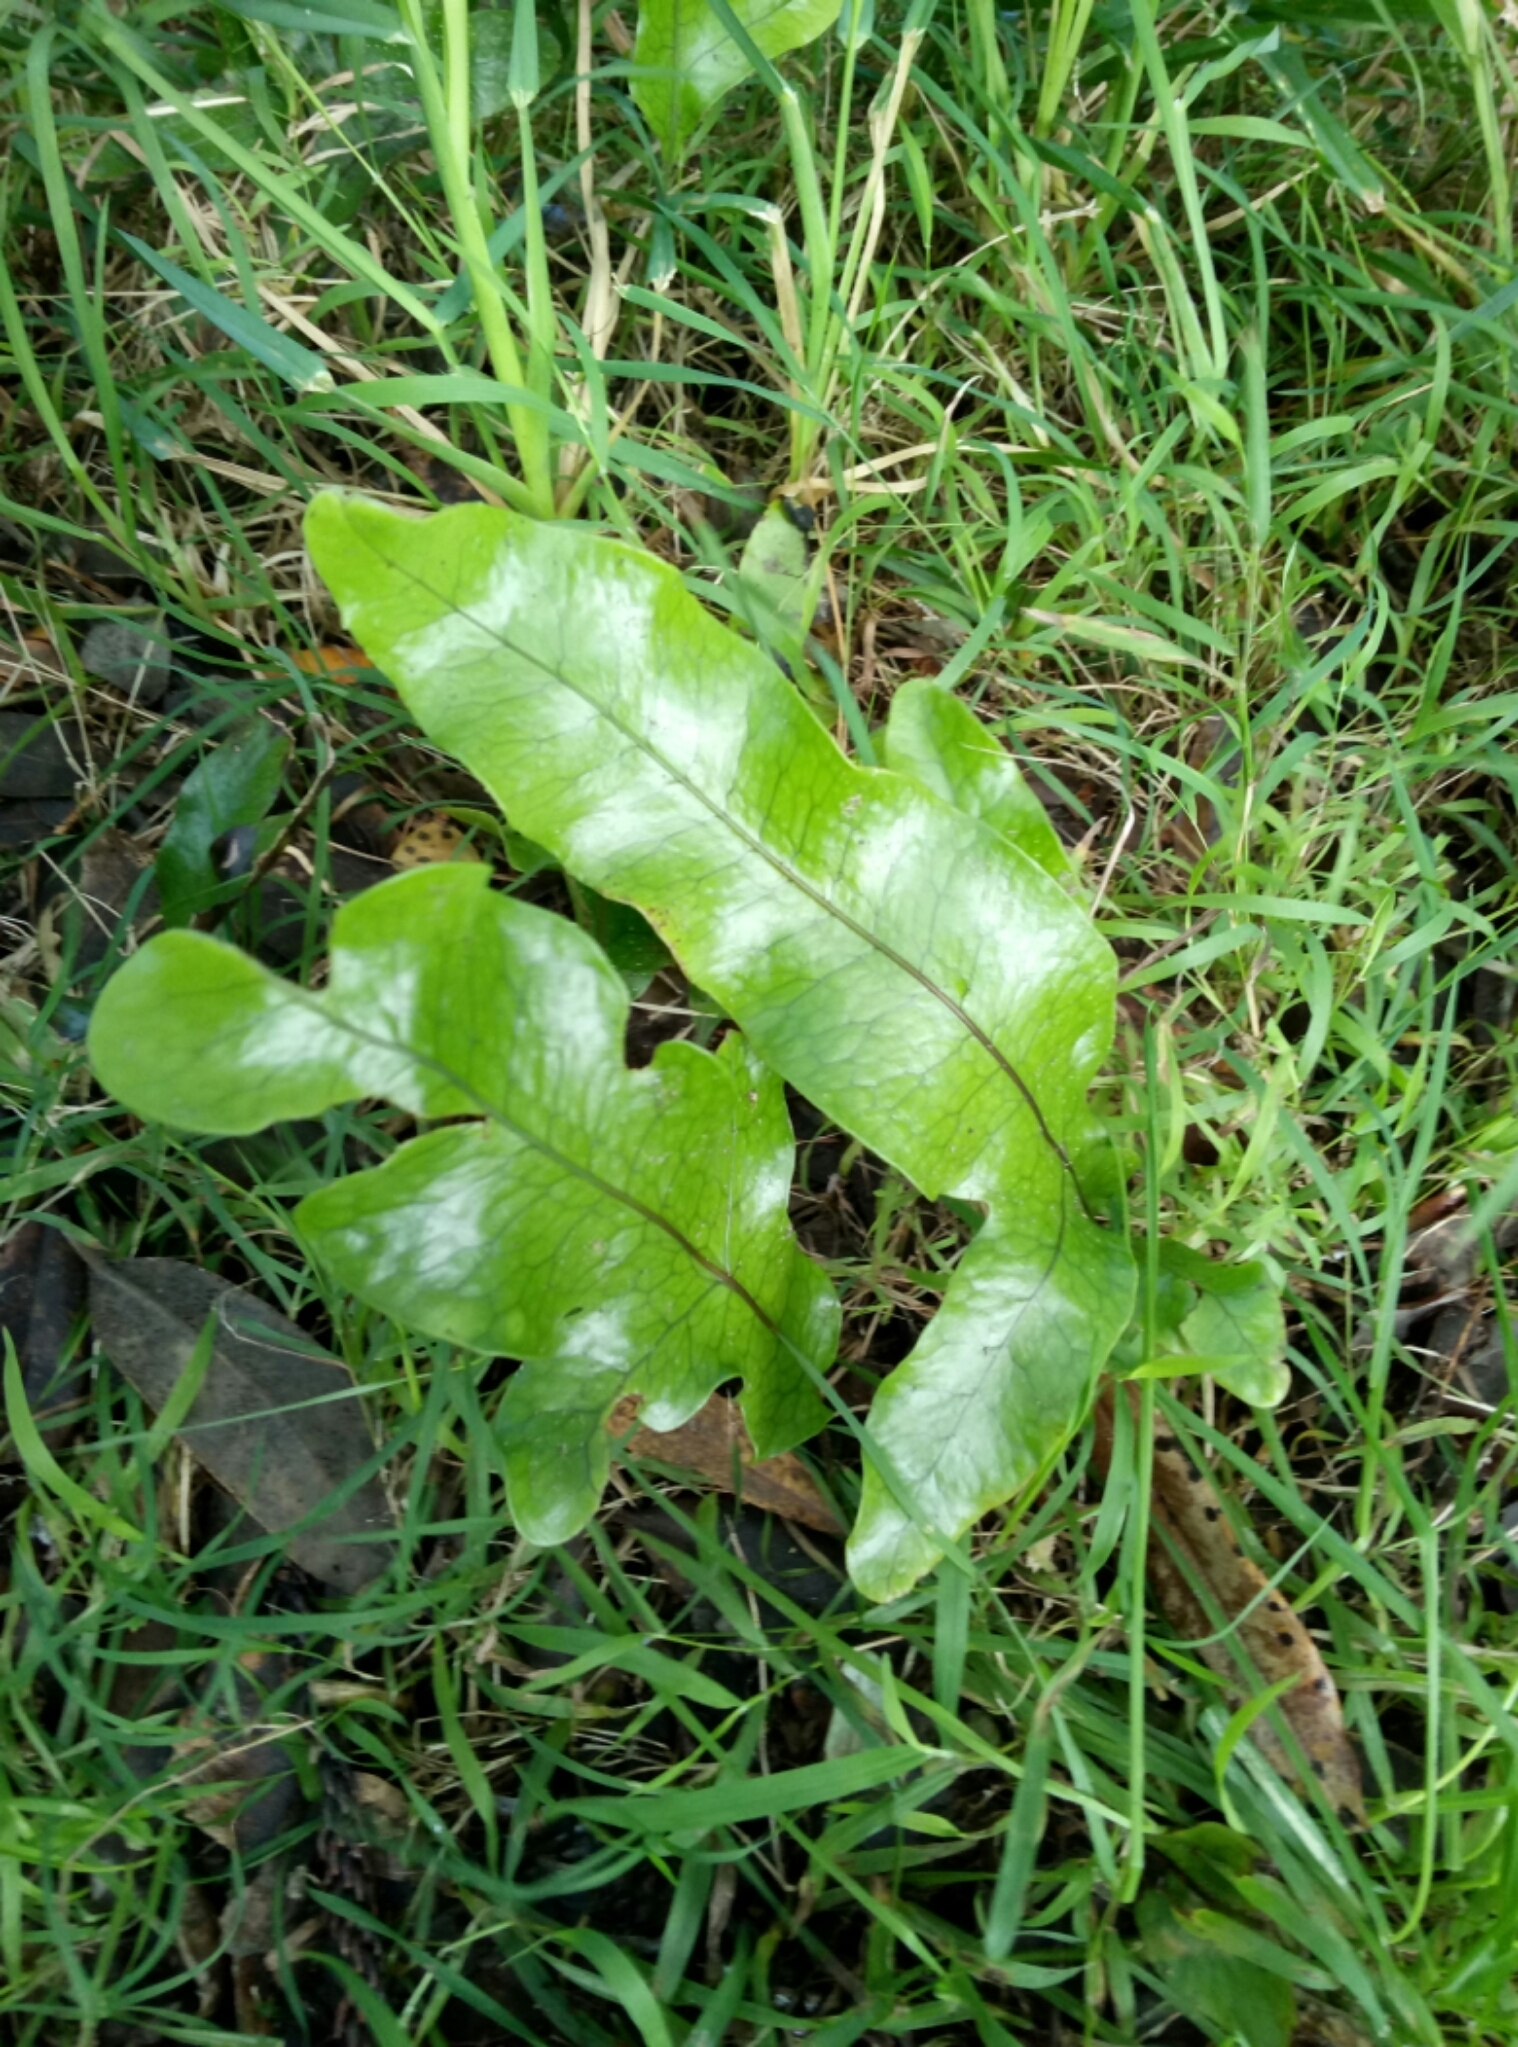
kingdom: Plantae
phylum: Tracheophyta
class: Polypodiopsida
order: Polypodiales
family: Polypodiaceae
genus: Lecanopteris
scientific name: Lecanopteris pustulata
